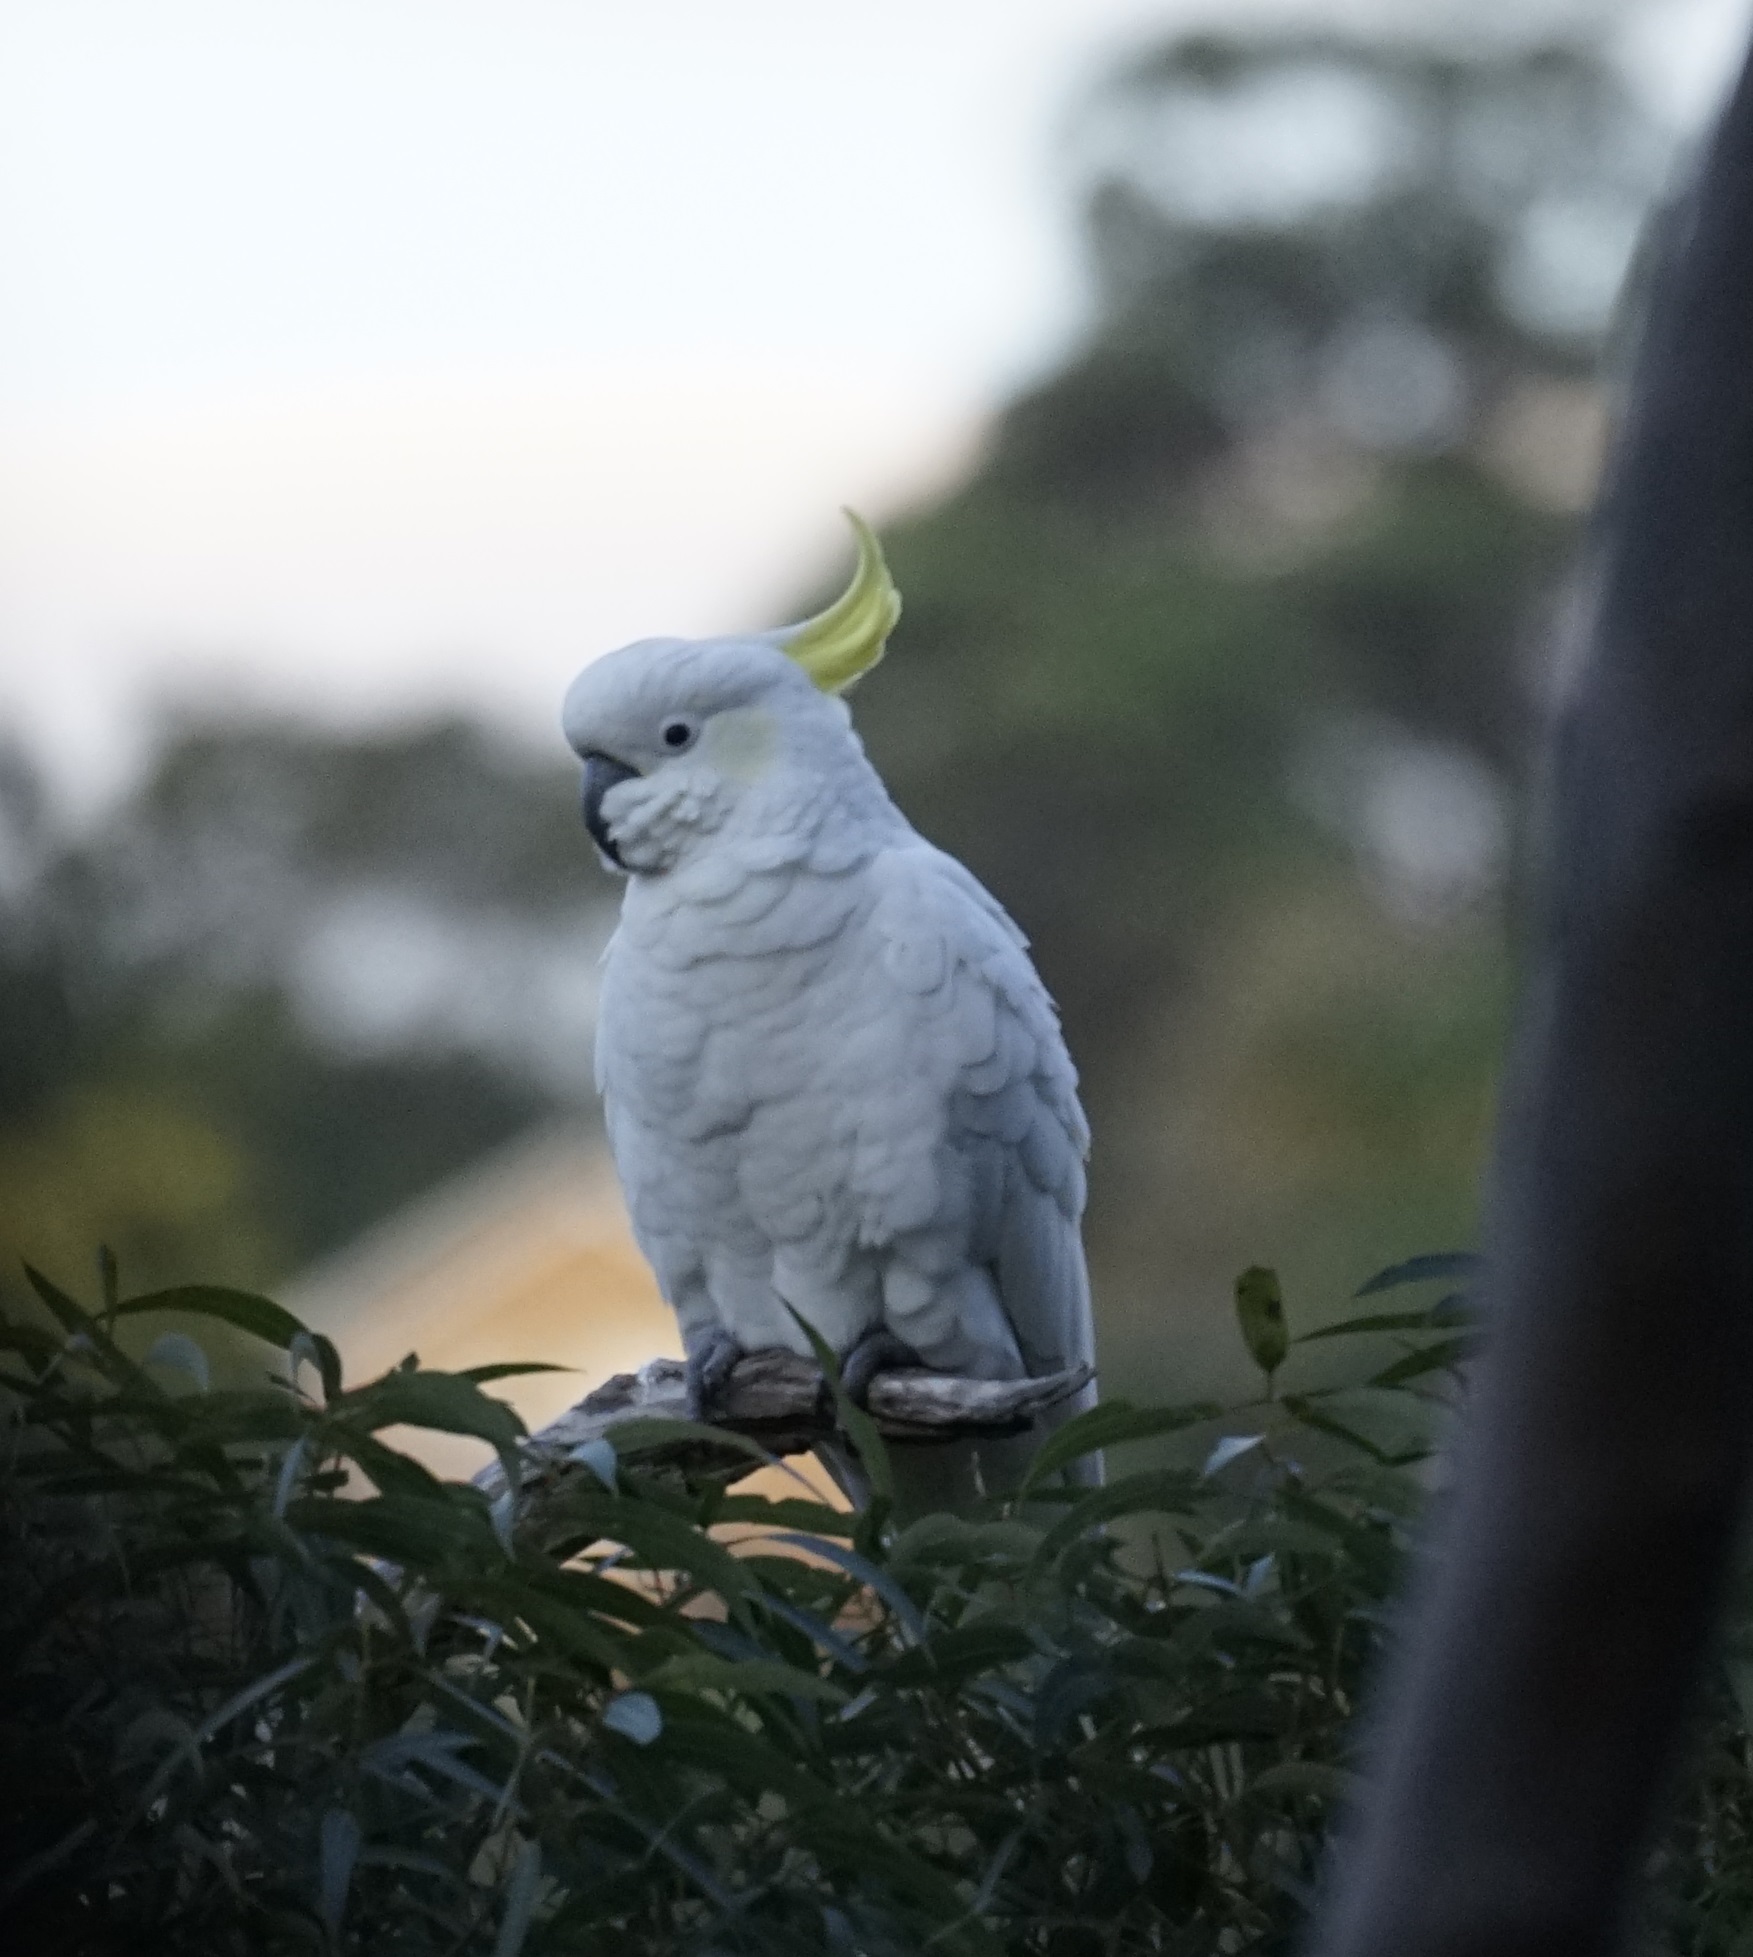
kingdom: Animalia
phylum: Chordata
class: Aves
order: Psittaciformes
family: Psittacidae
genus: Cacatua
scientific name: Cacatua galerita
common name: Sulphur-crested cockatoo
